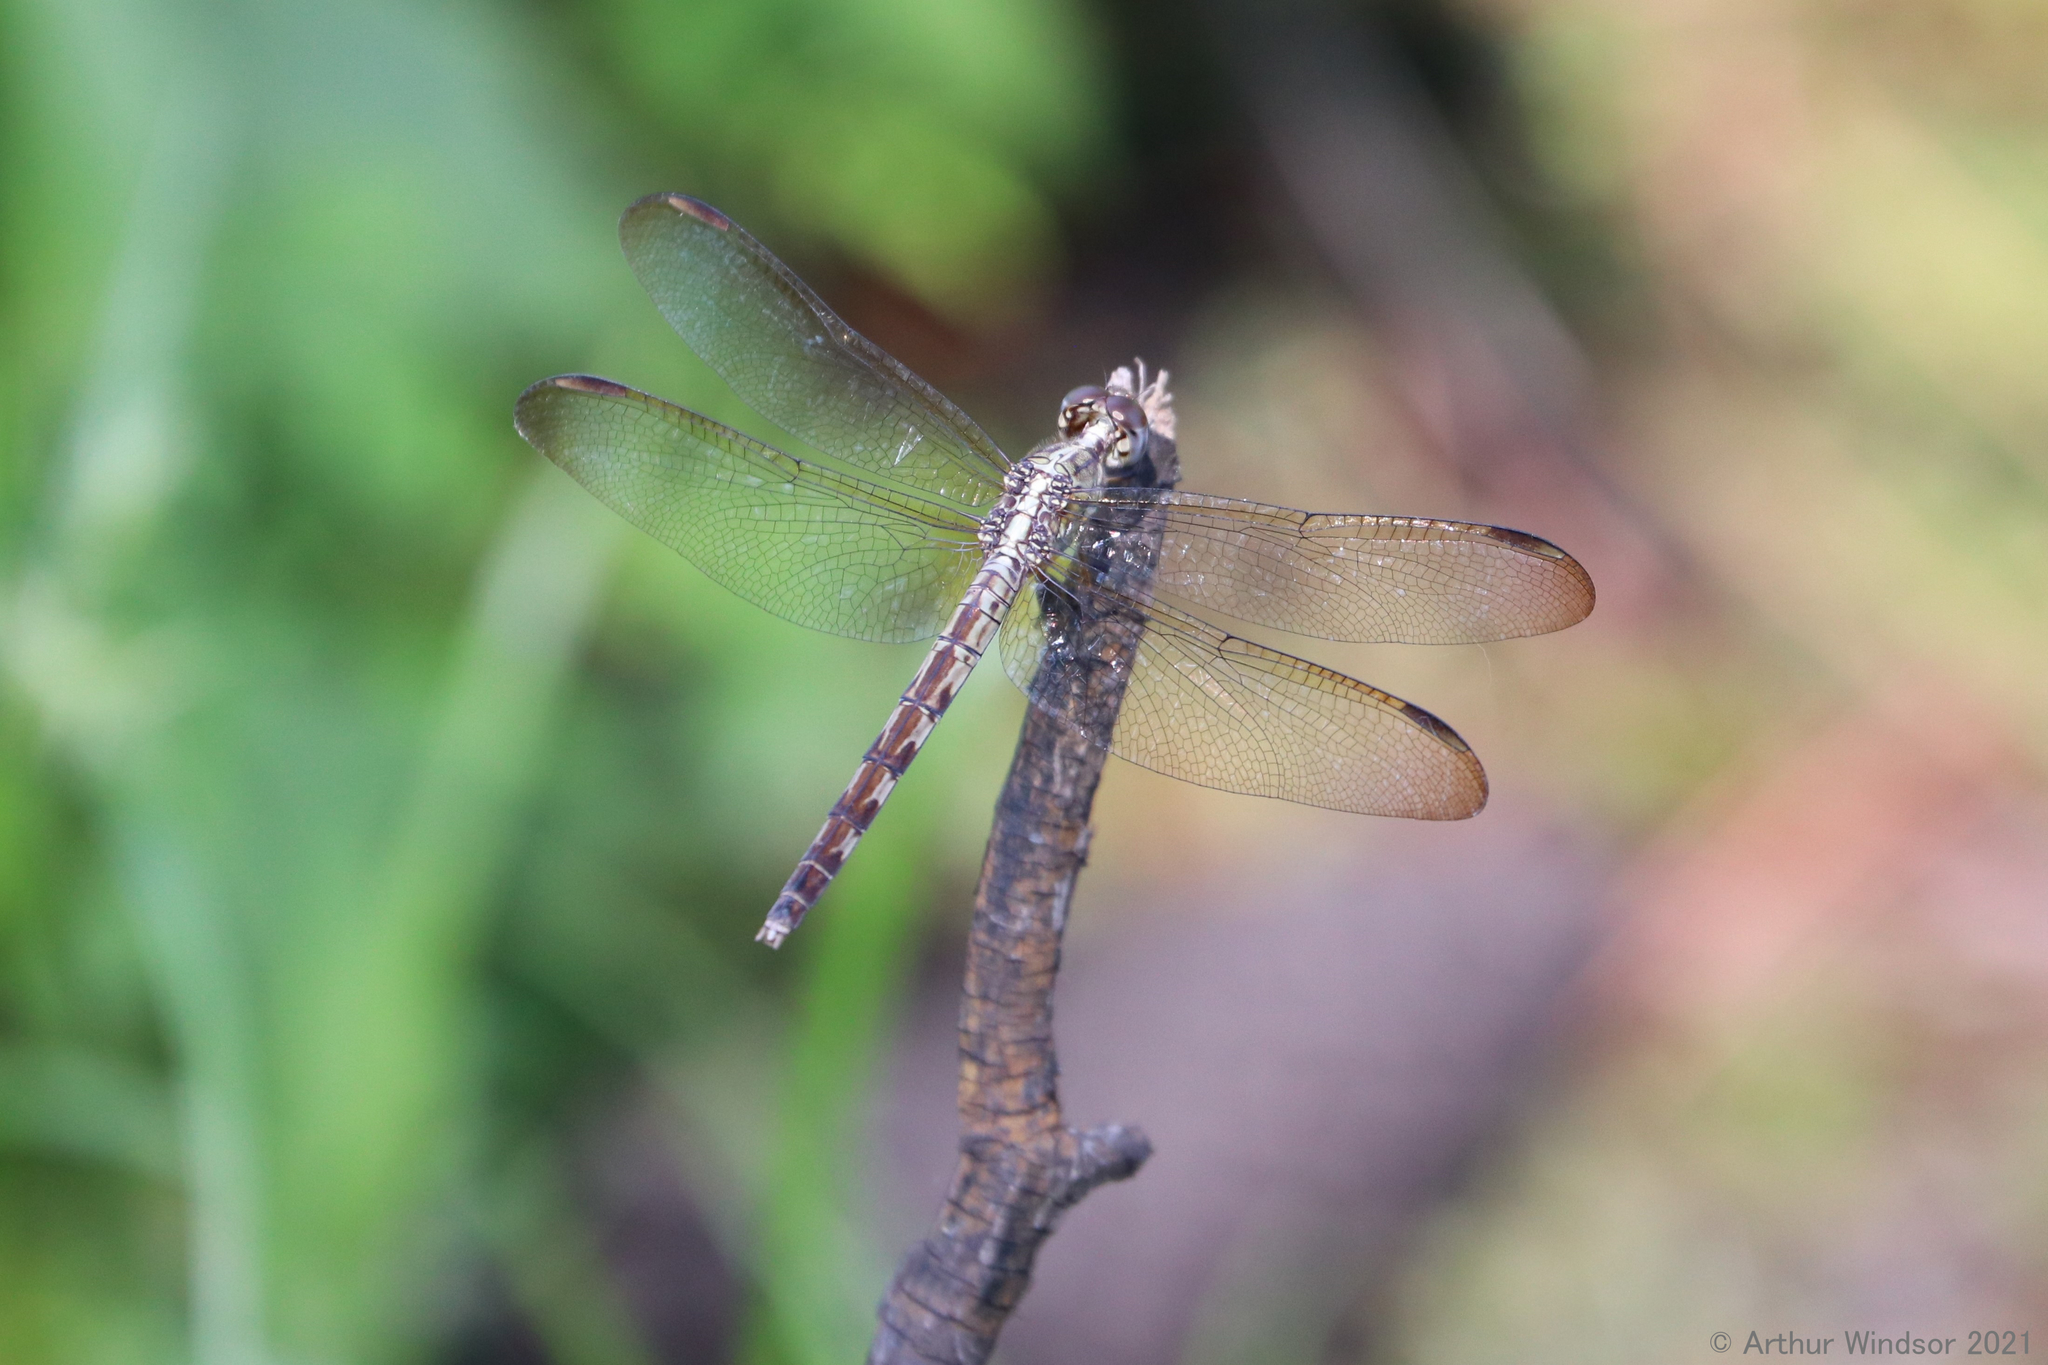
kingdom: Animalia
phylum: Arthropoda
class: Insecta
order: Odonata
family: Libellulidae
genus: Erythrodiplax
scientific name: Erythrodiplax umbrata
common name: Band-winged dragonlet
